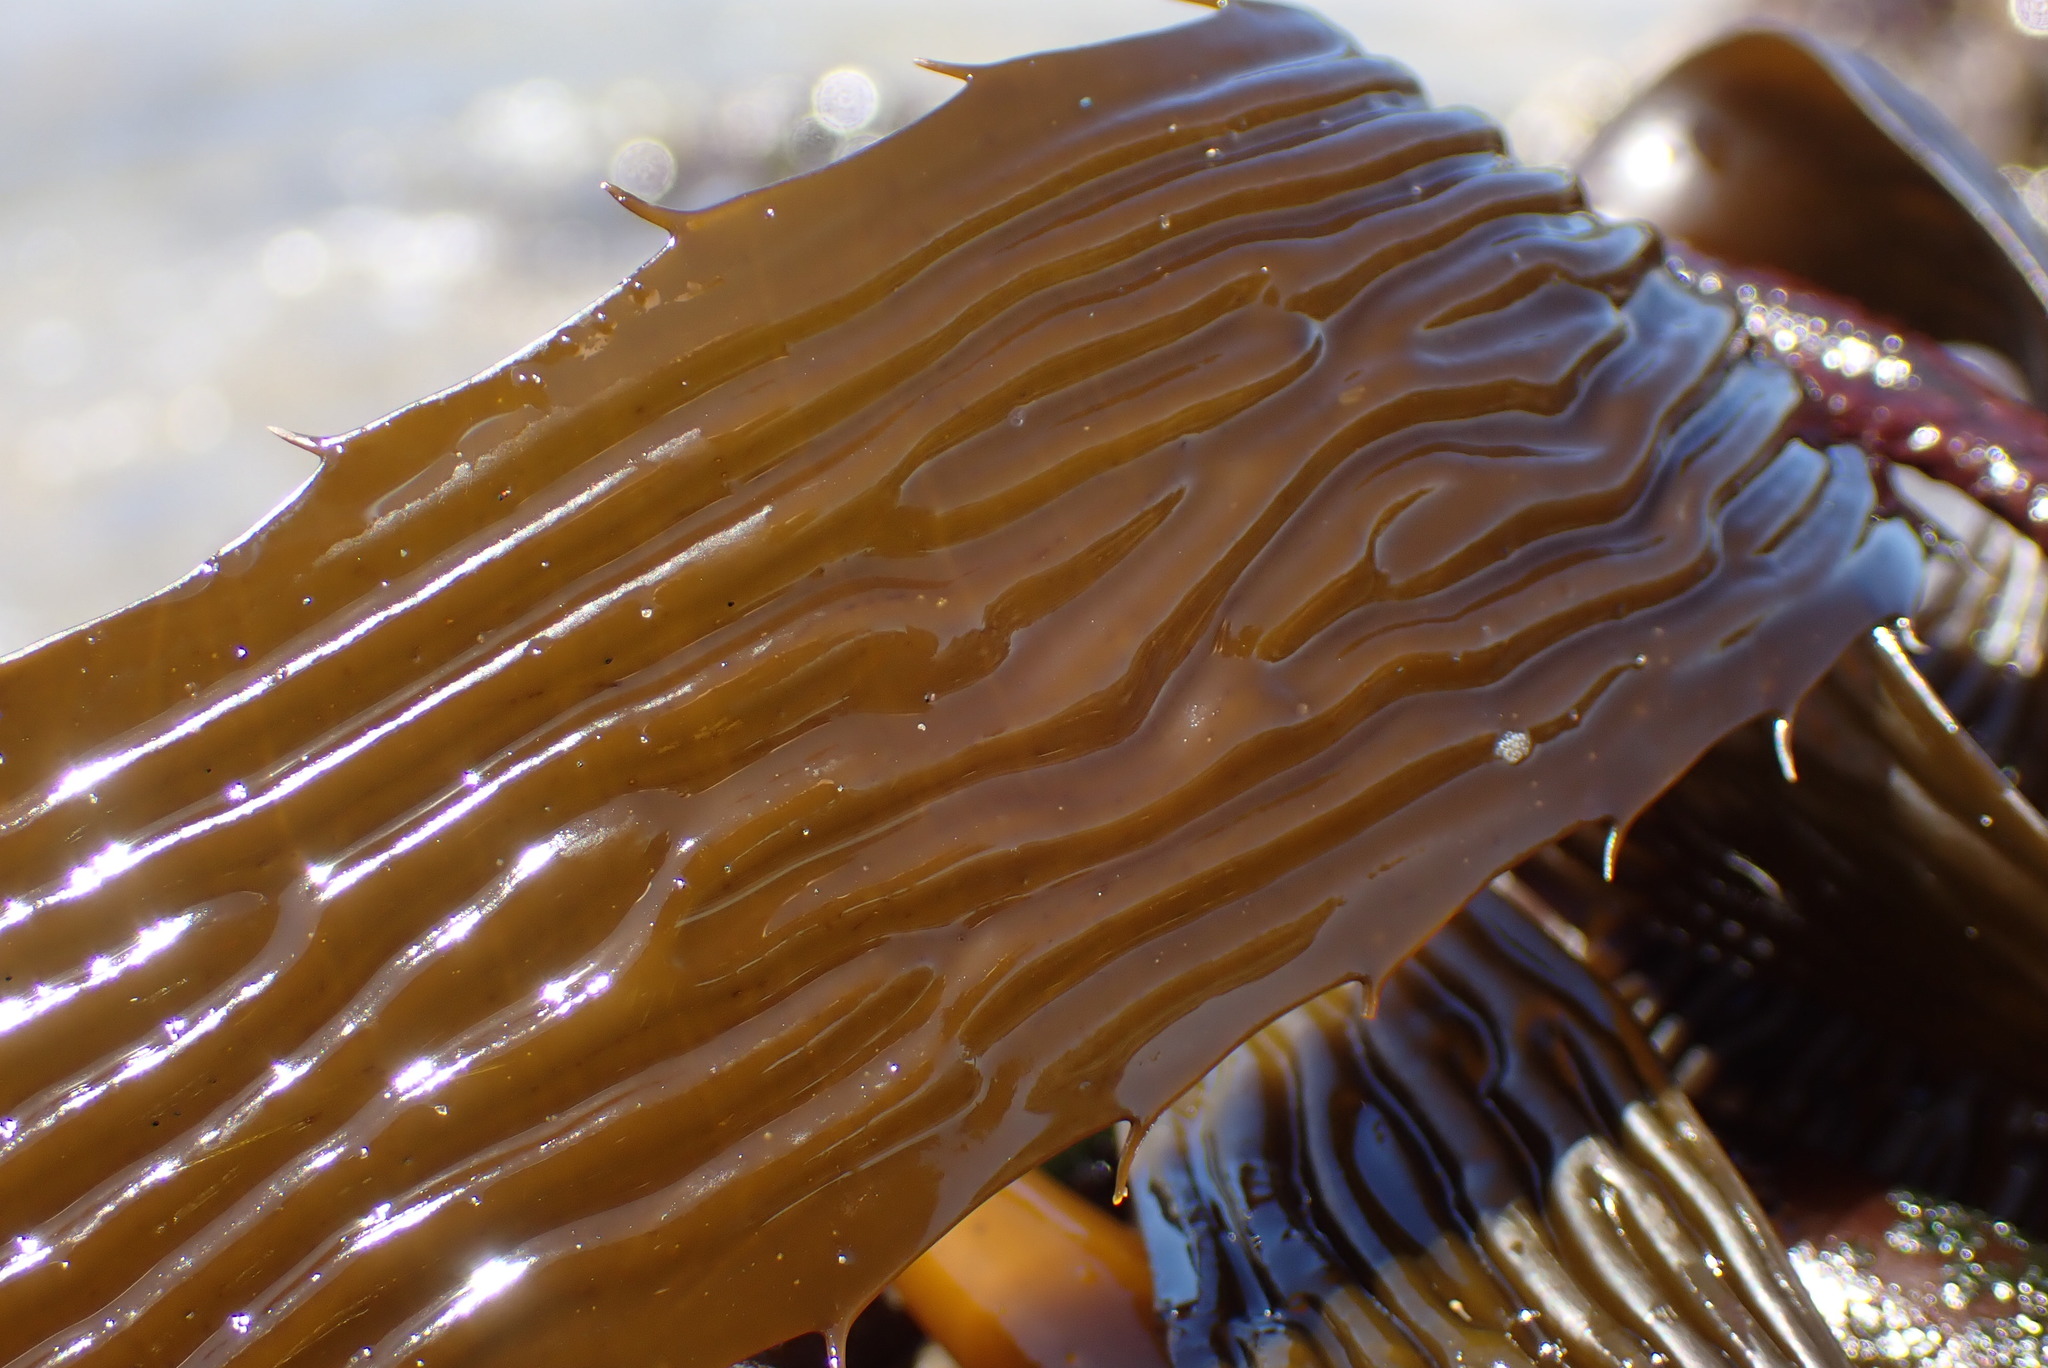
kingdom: Chromista
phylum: Ochrophyta
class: Phaeophyceae
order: Laminariales
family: Laminariaceae
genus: Macrocystis
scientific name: Macrocystis pyrifera
